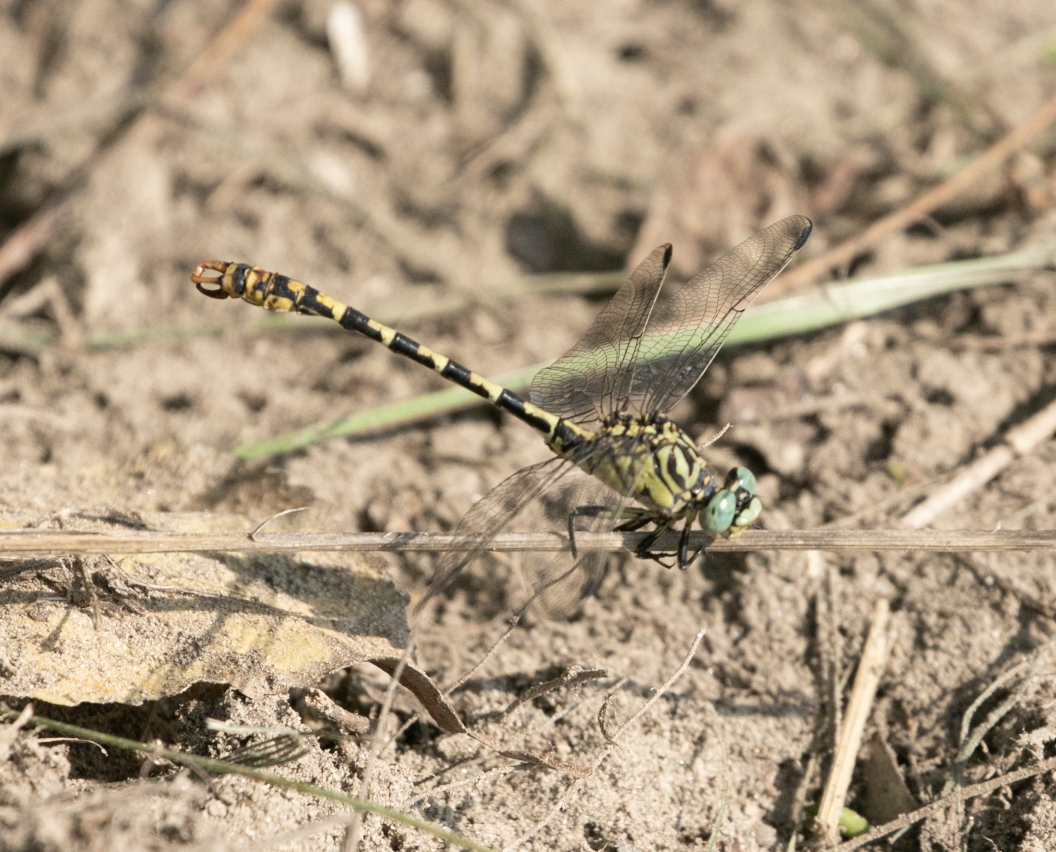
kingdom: Animalia
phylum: Arthropoda
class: Insecta
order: Odonata
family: Gomphidae
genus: Onychogomphus
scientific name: Onychogomphus forcipatus
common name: Small pincertail
